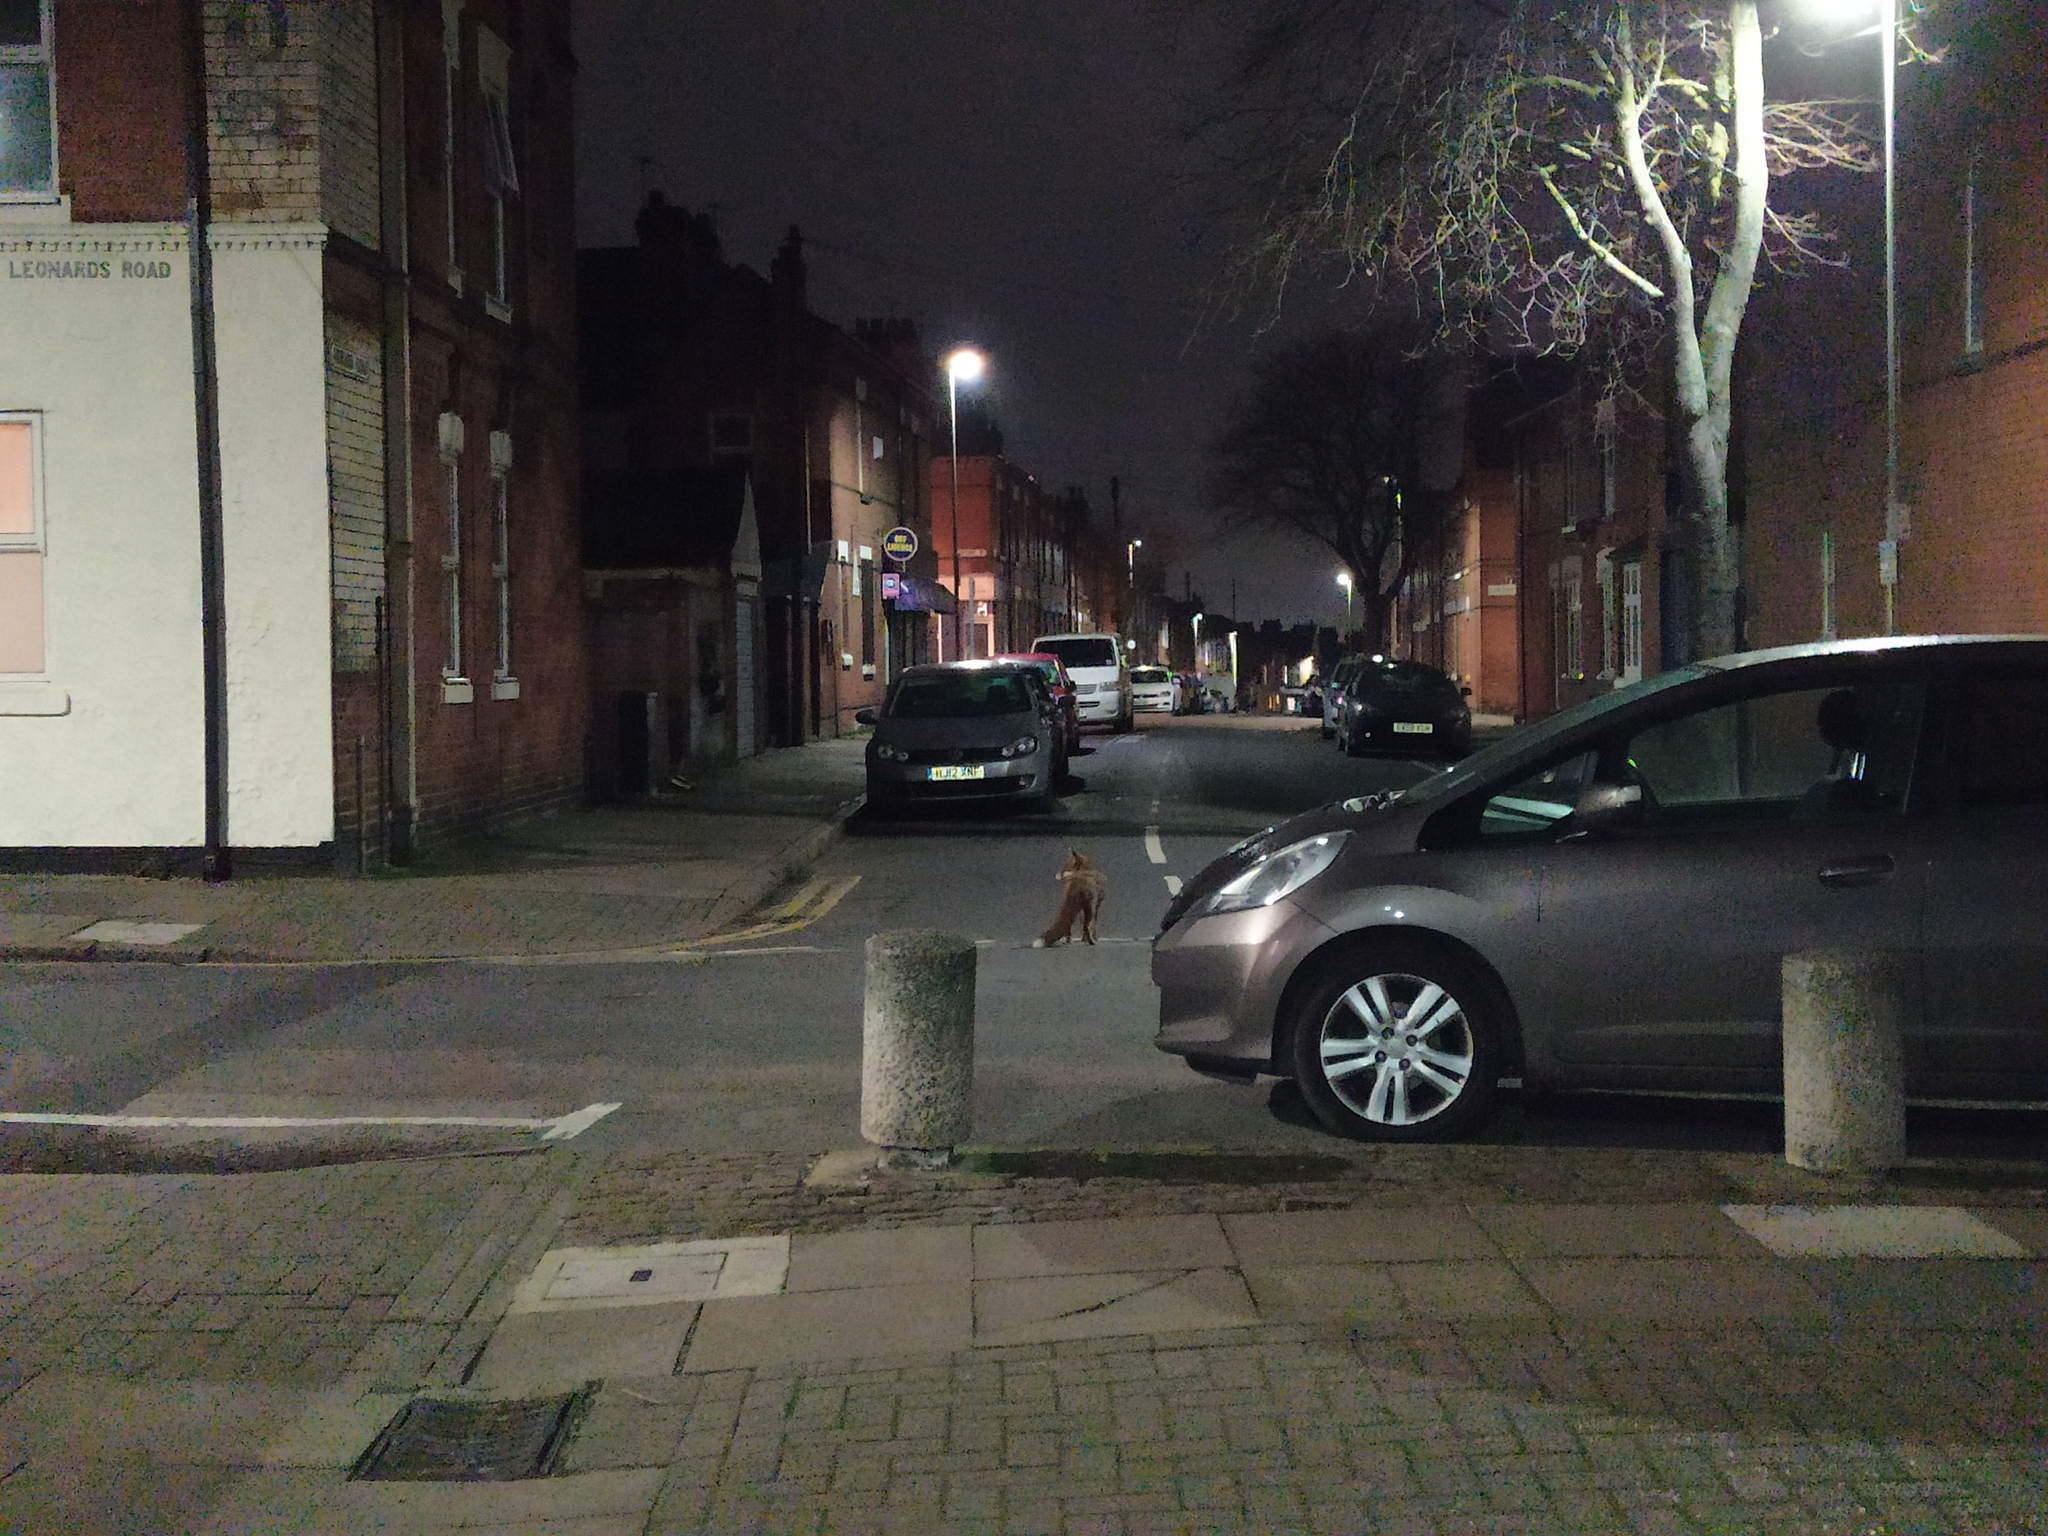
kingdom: Animalia
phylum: Chordata
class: Mammalia
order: Carnivora
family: Canidae
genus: Vulpes
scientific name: Vulpes vulpes
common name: Red fox
